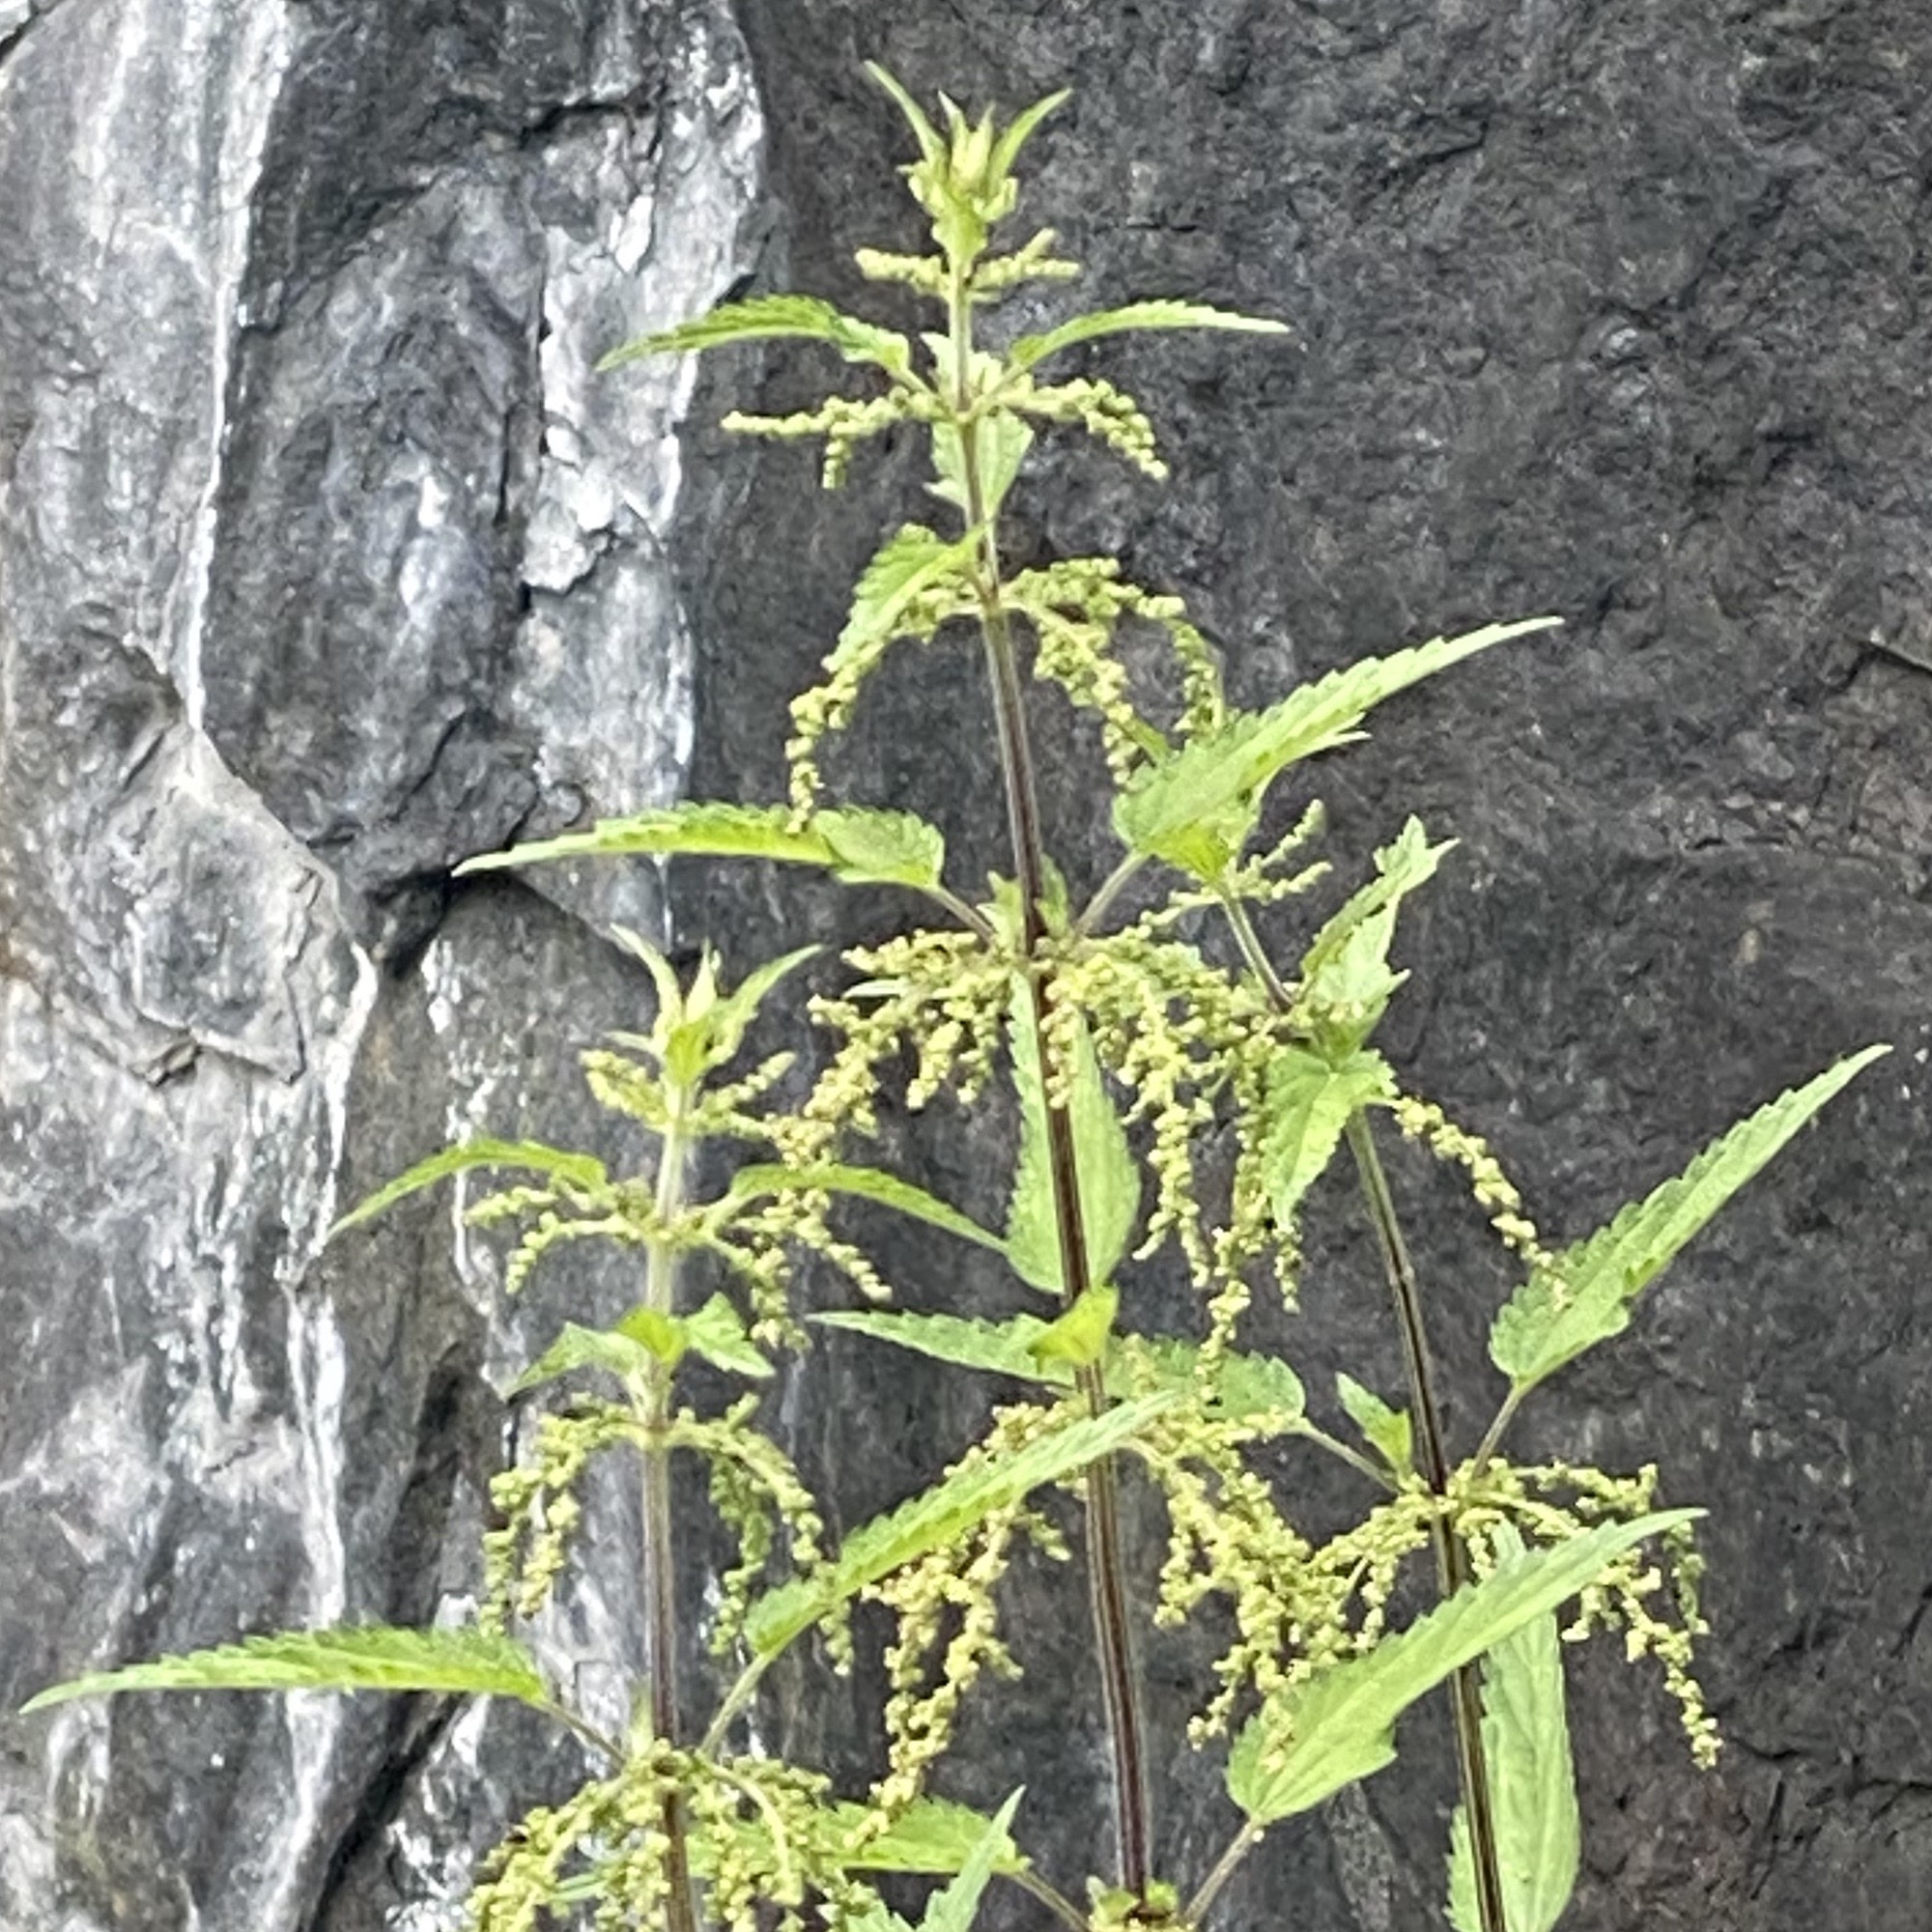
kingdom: Plantae
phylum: Tracheophyta
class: Magnoliopsida
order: Rosales
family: Urticaceae
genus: Urtica
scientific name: Urtica dioica
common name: Common nettle
